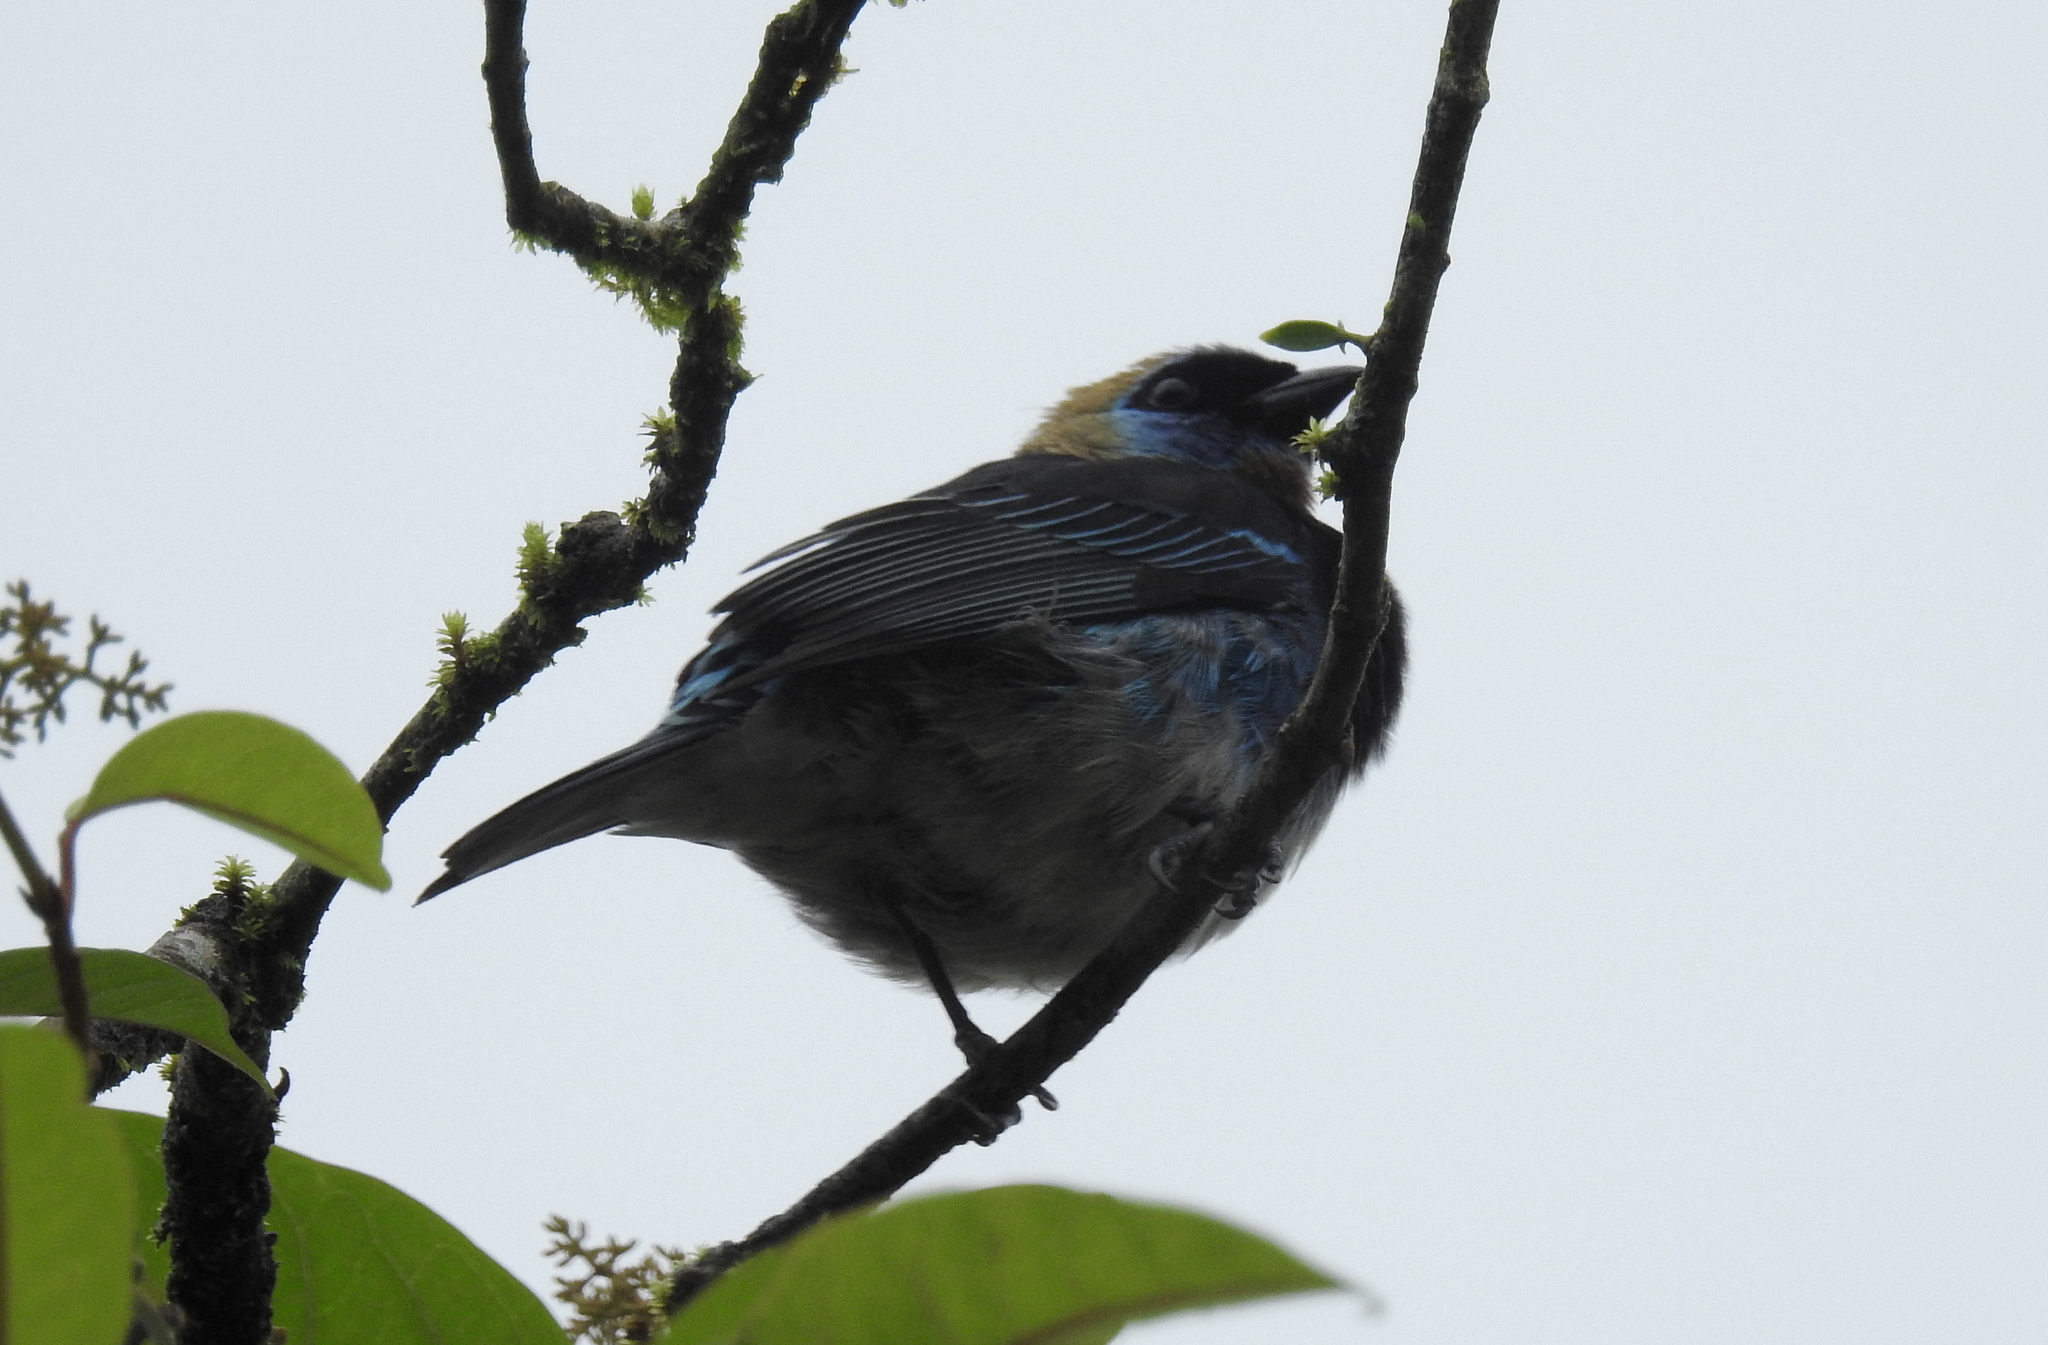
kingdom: Animalia
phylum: Chordata
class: Aves
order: Passeriformes
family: Thraupidae
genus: Stilpnia
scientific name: Stilpnia larvata
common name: Golden-hooded tanager
